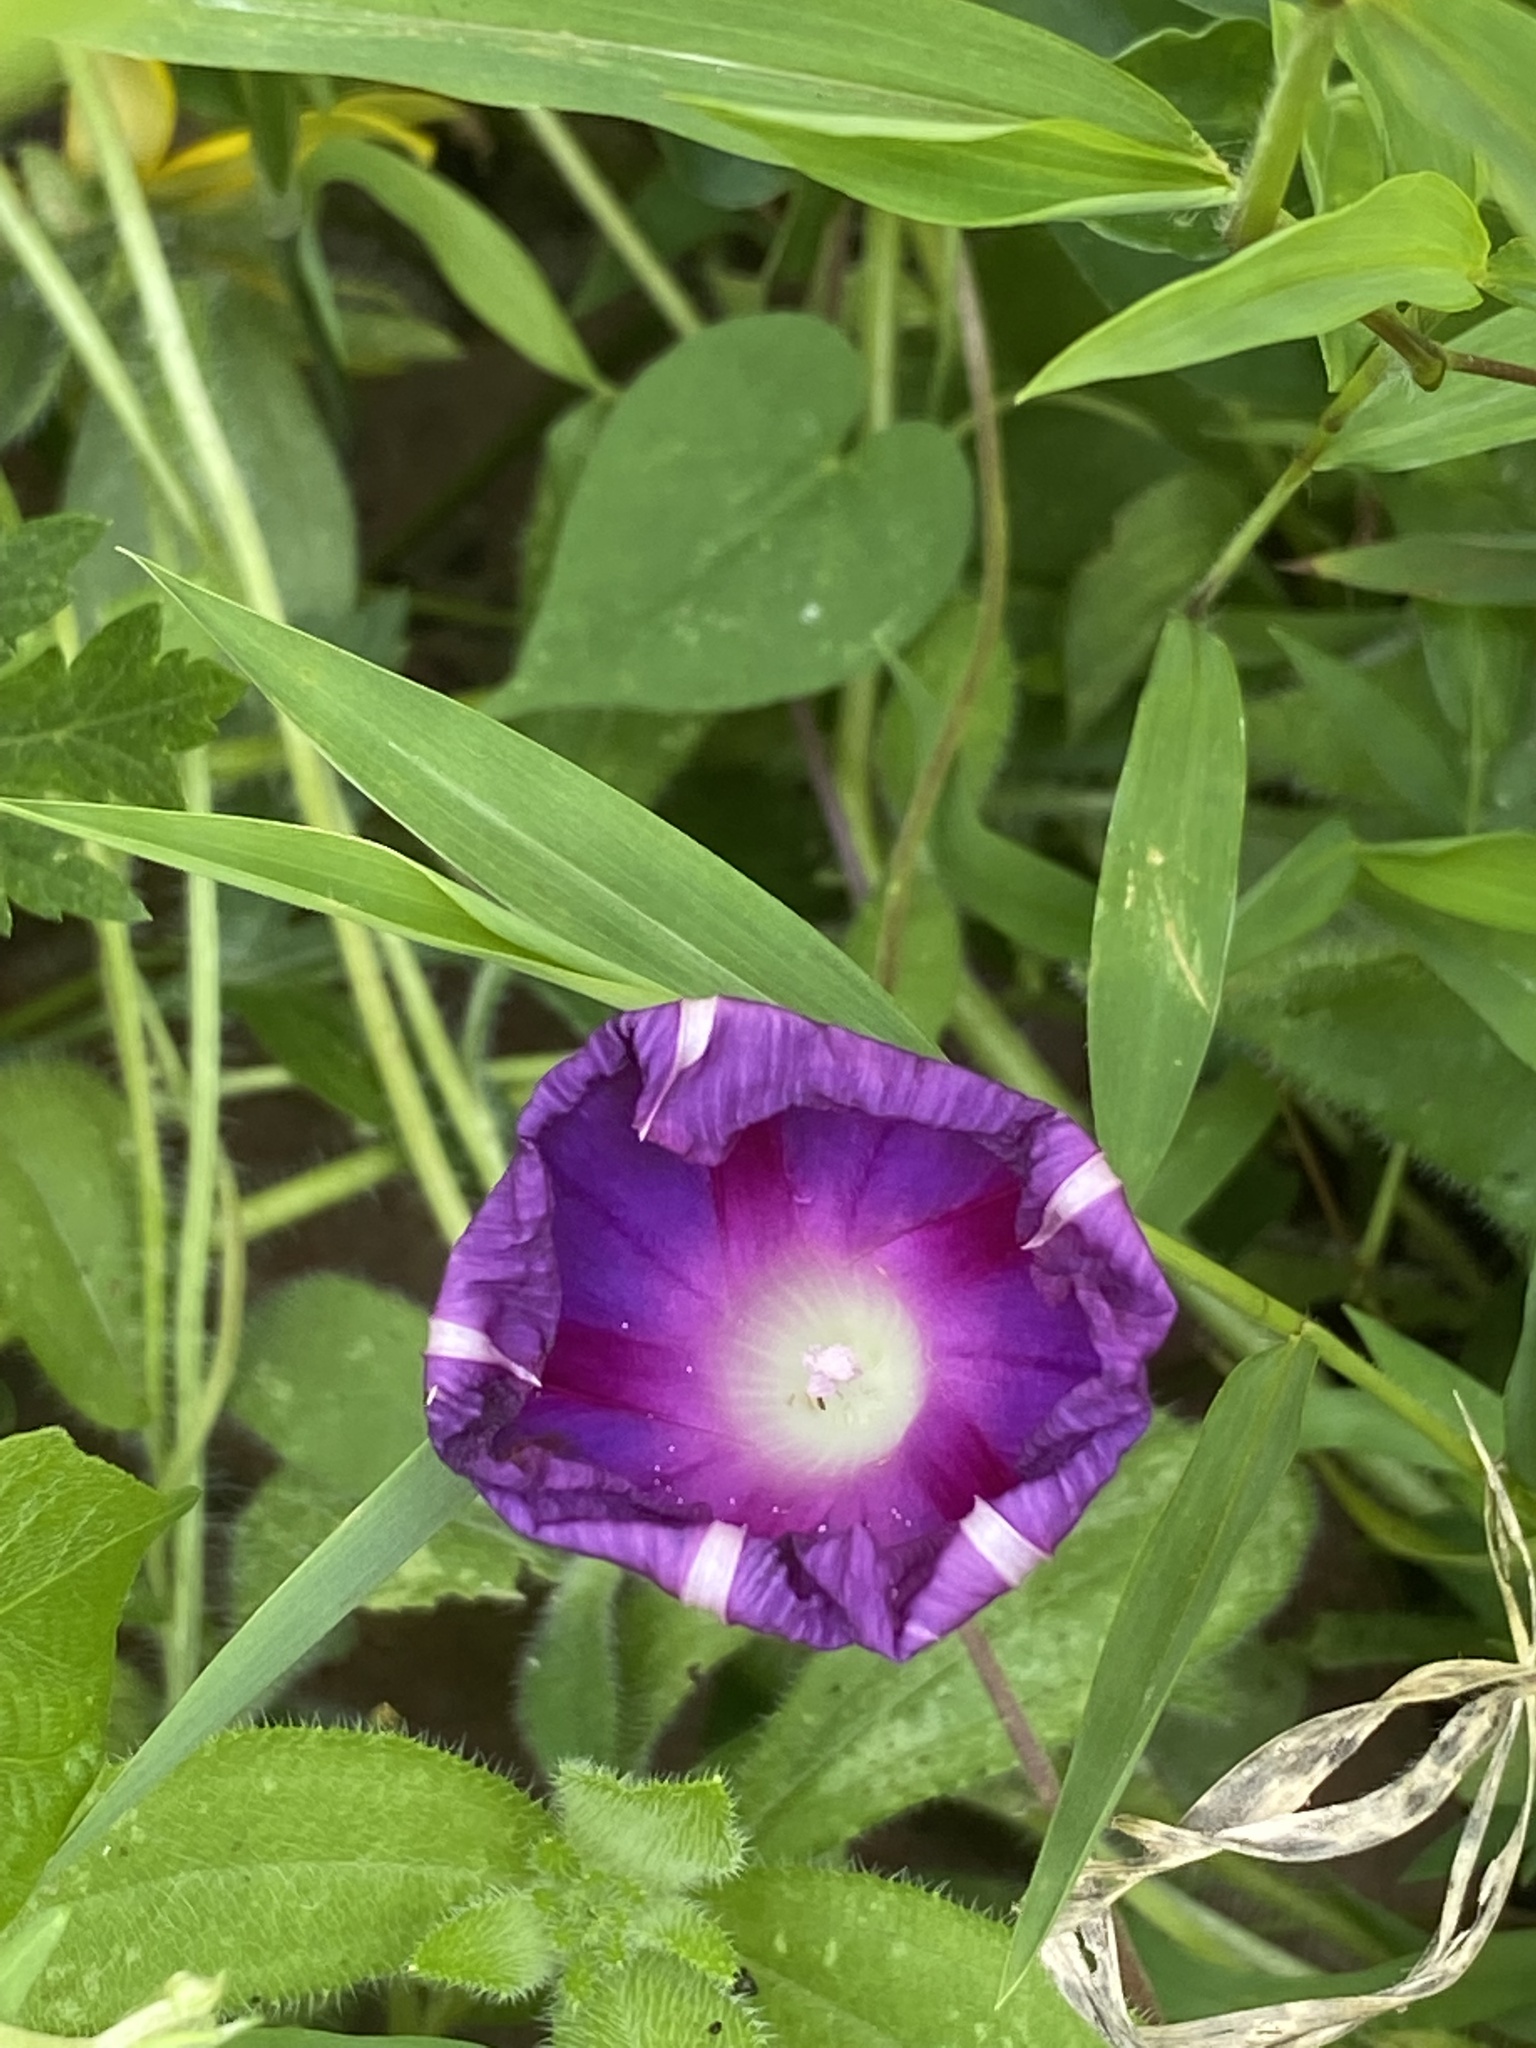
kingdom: Plantae
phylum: Tracheophyta
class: Magnoliopsida
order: Solanales
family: Convolvulaceae
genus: Ipomoea
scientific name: Ipomoea purpurea
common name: Common morning-glory
